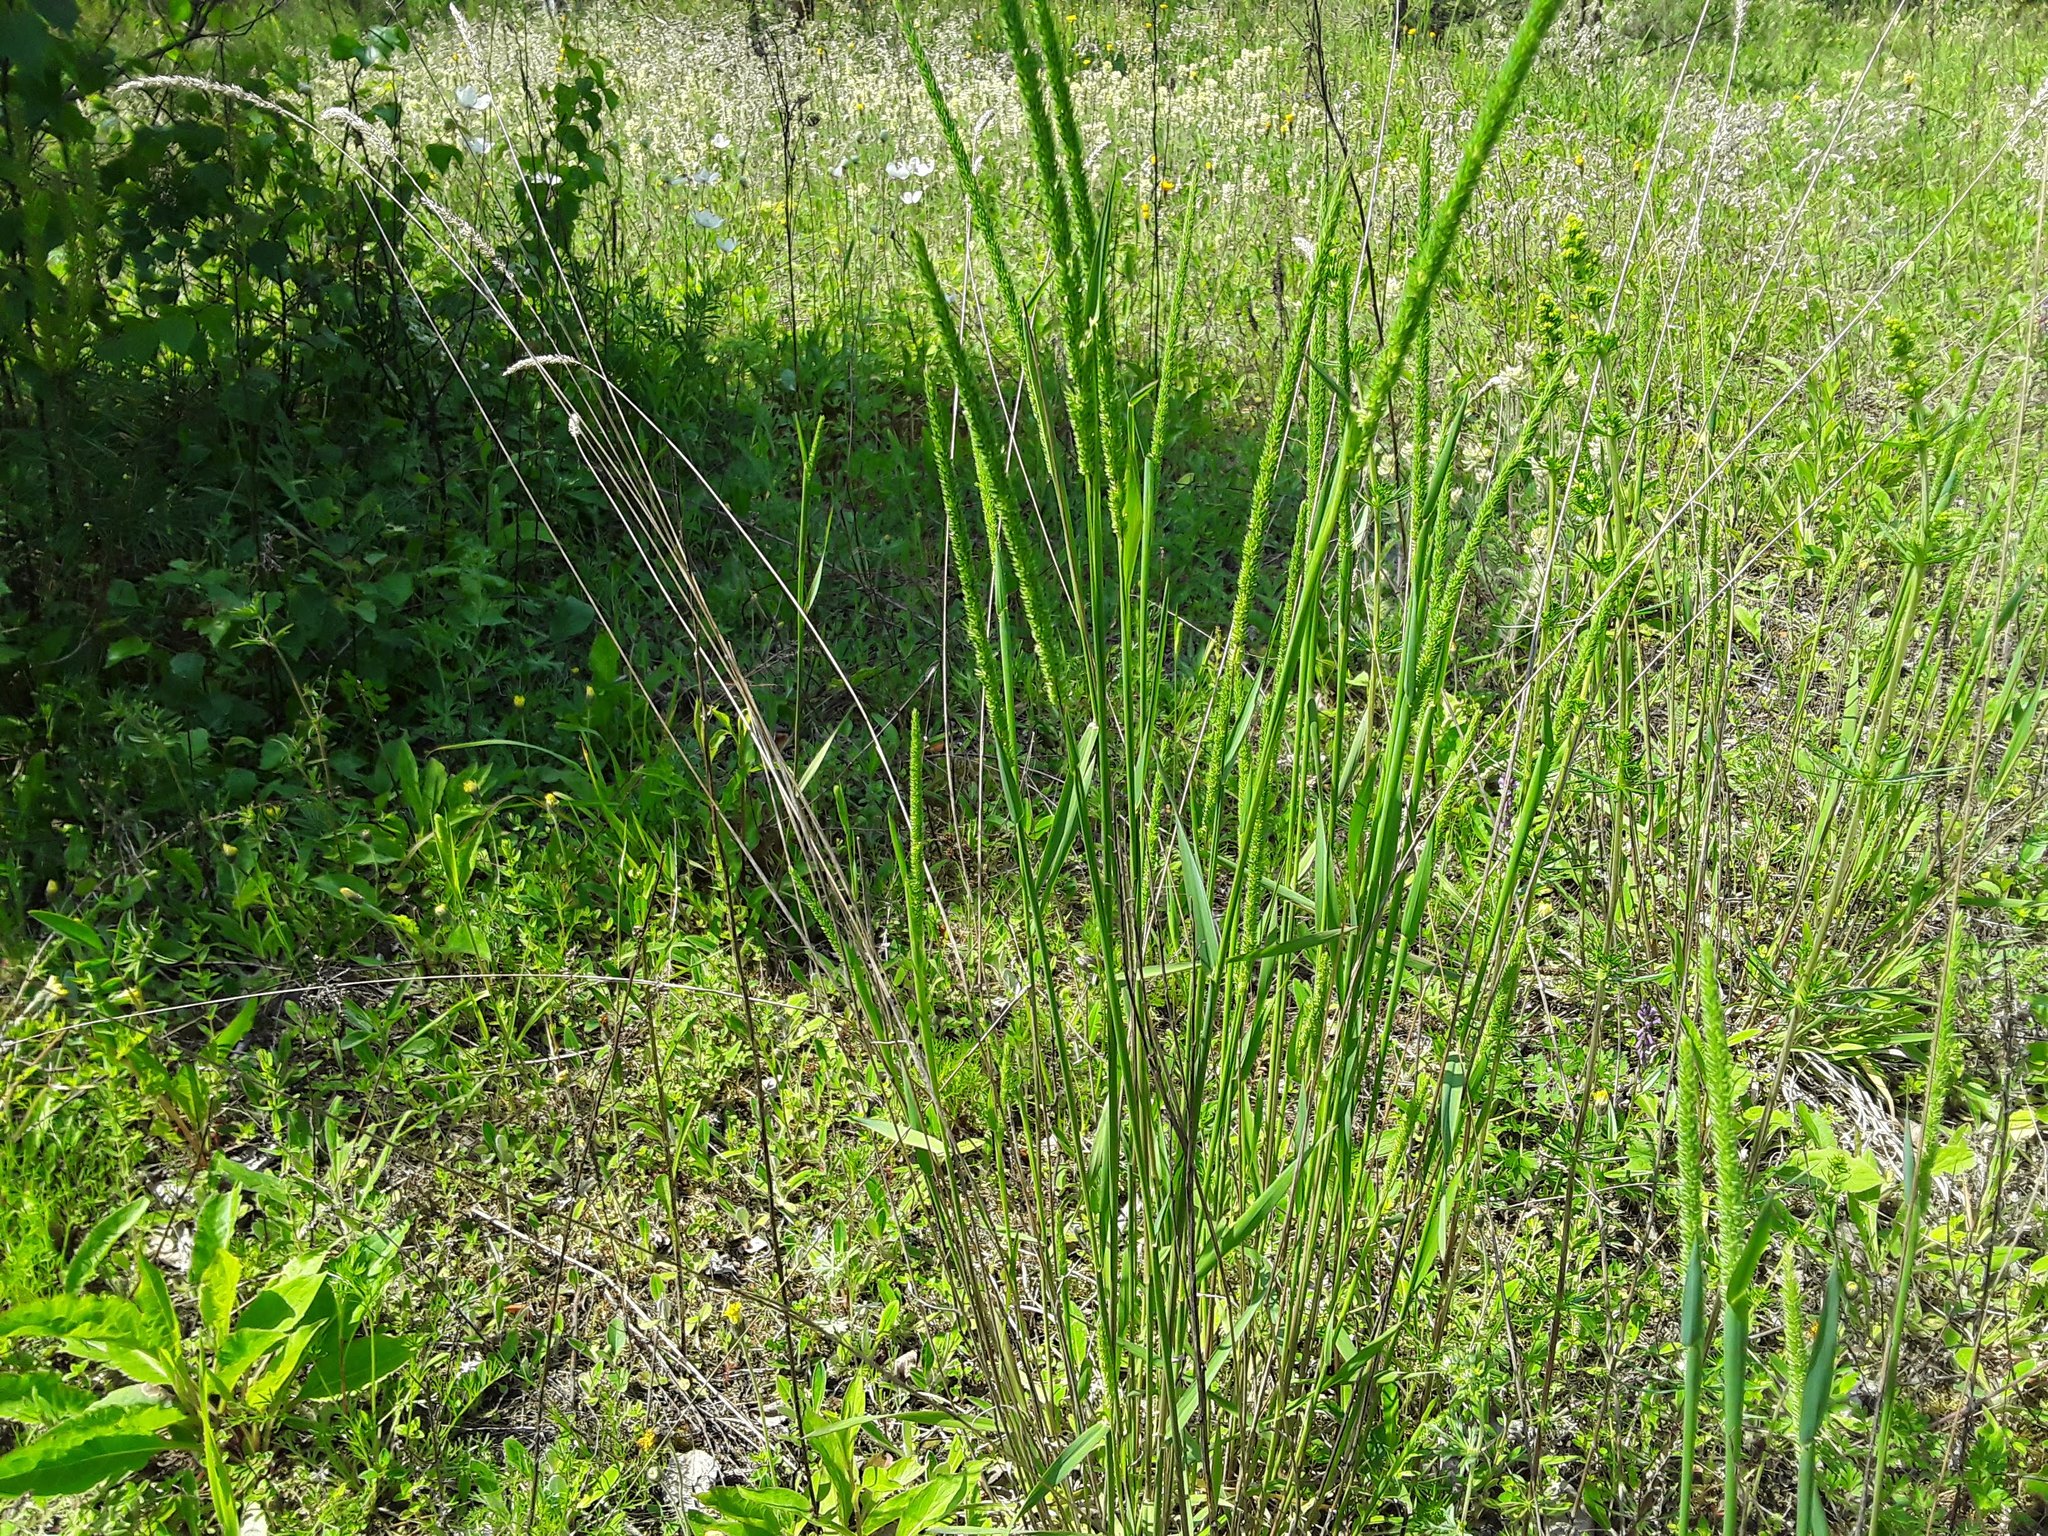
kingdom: Plantae
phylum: Tracheophyta
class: Liliopsida
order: Poales
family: Poaceae
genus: Phleum
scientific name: Phleum phleoides
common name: Purple-stem cat's-tail
